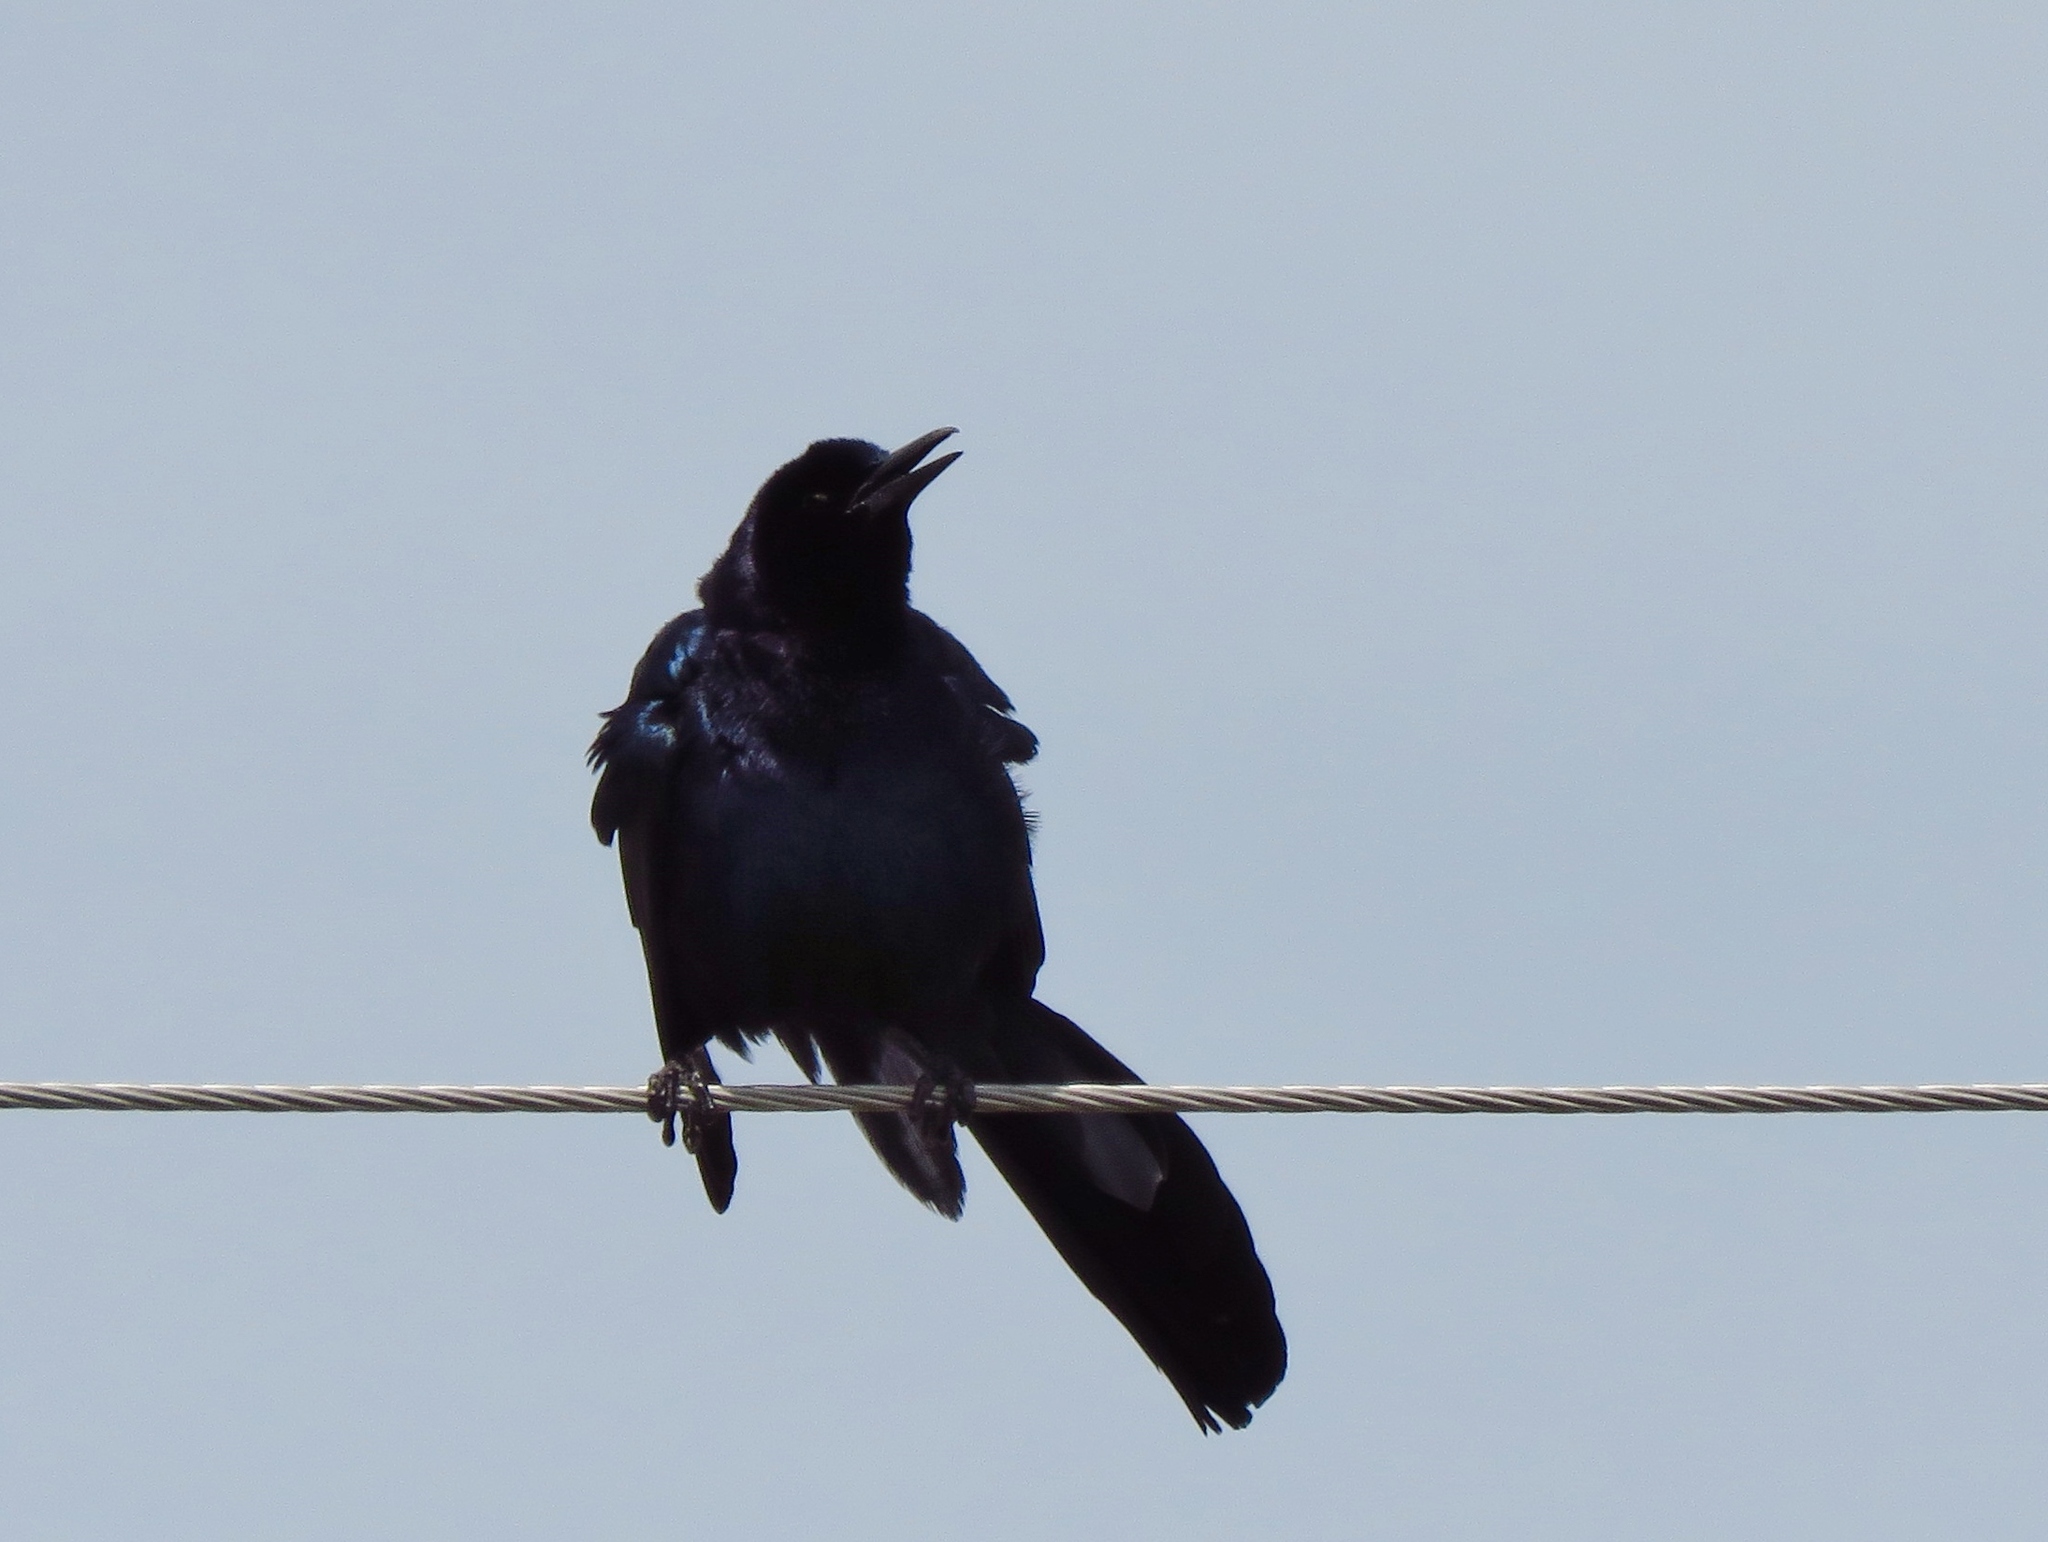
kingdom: Animalia
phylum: Chordata
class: Aves
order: Passeriformes
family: Icteridae
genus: Quiscalus
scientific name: Quiscalus mexicanus
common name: Great-tailed grackle
